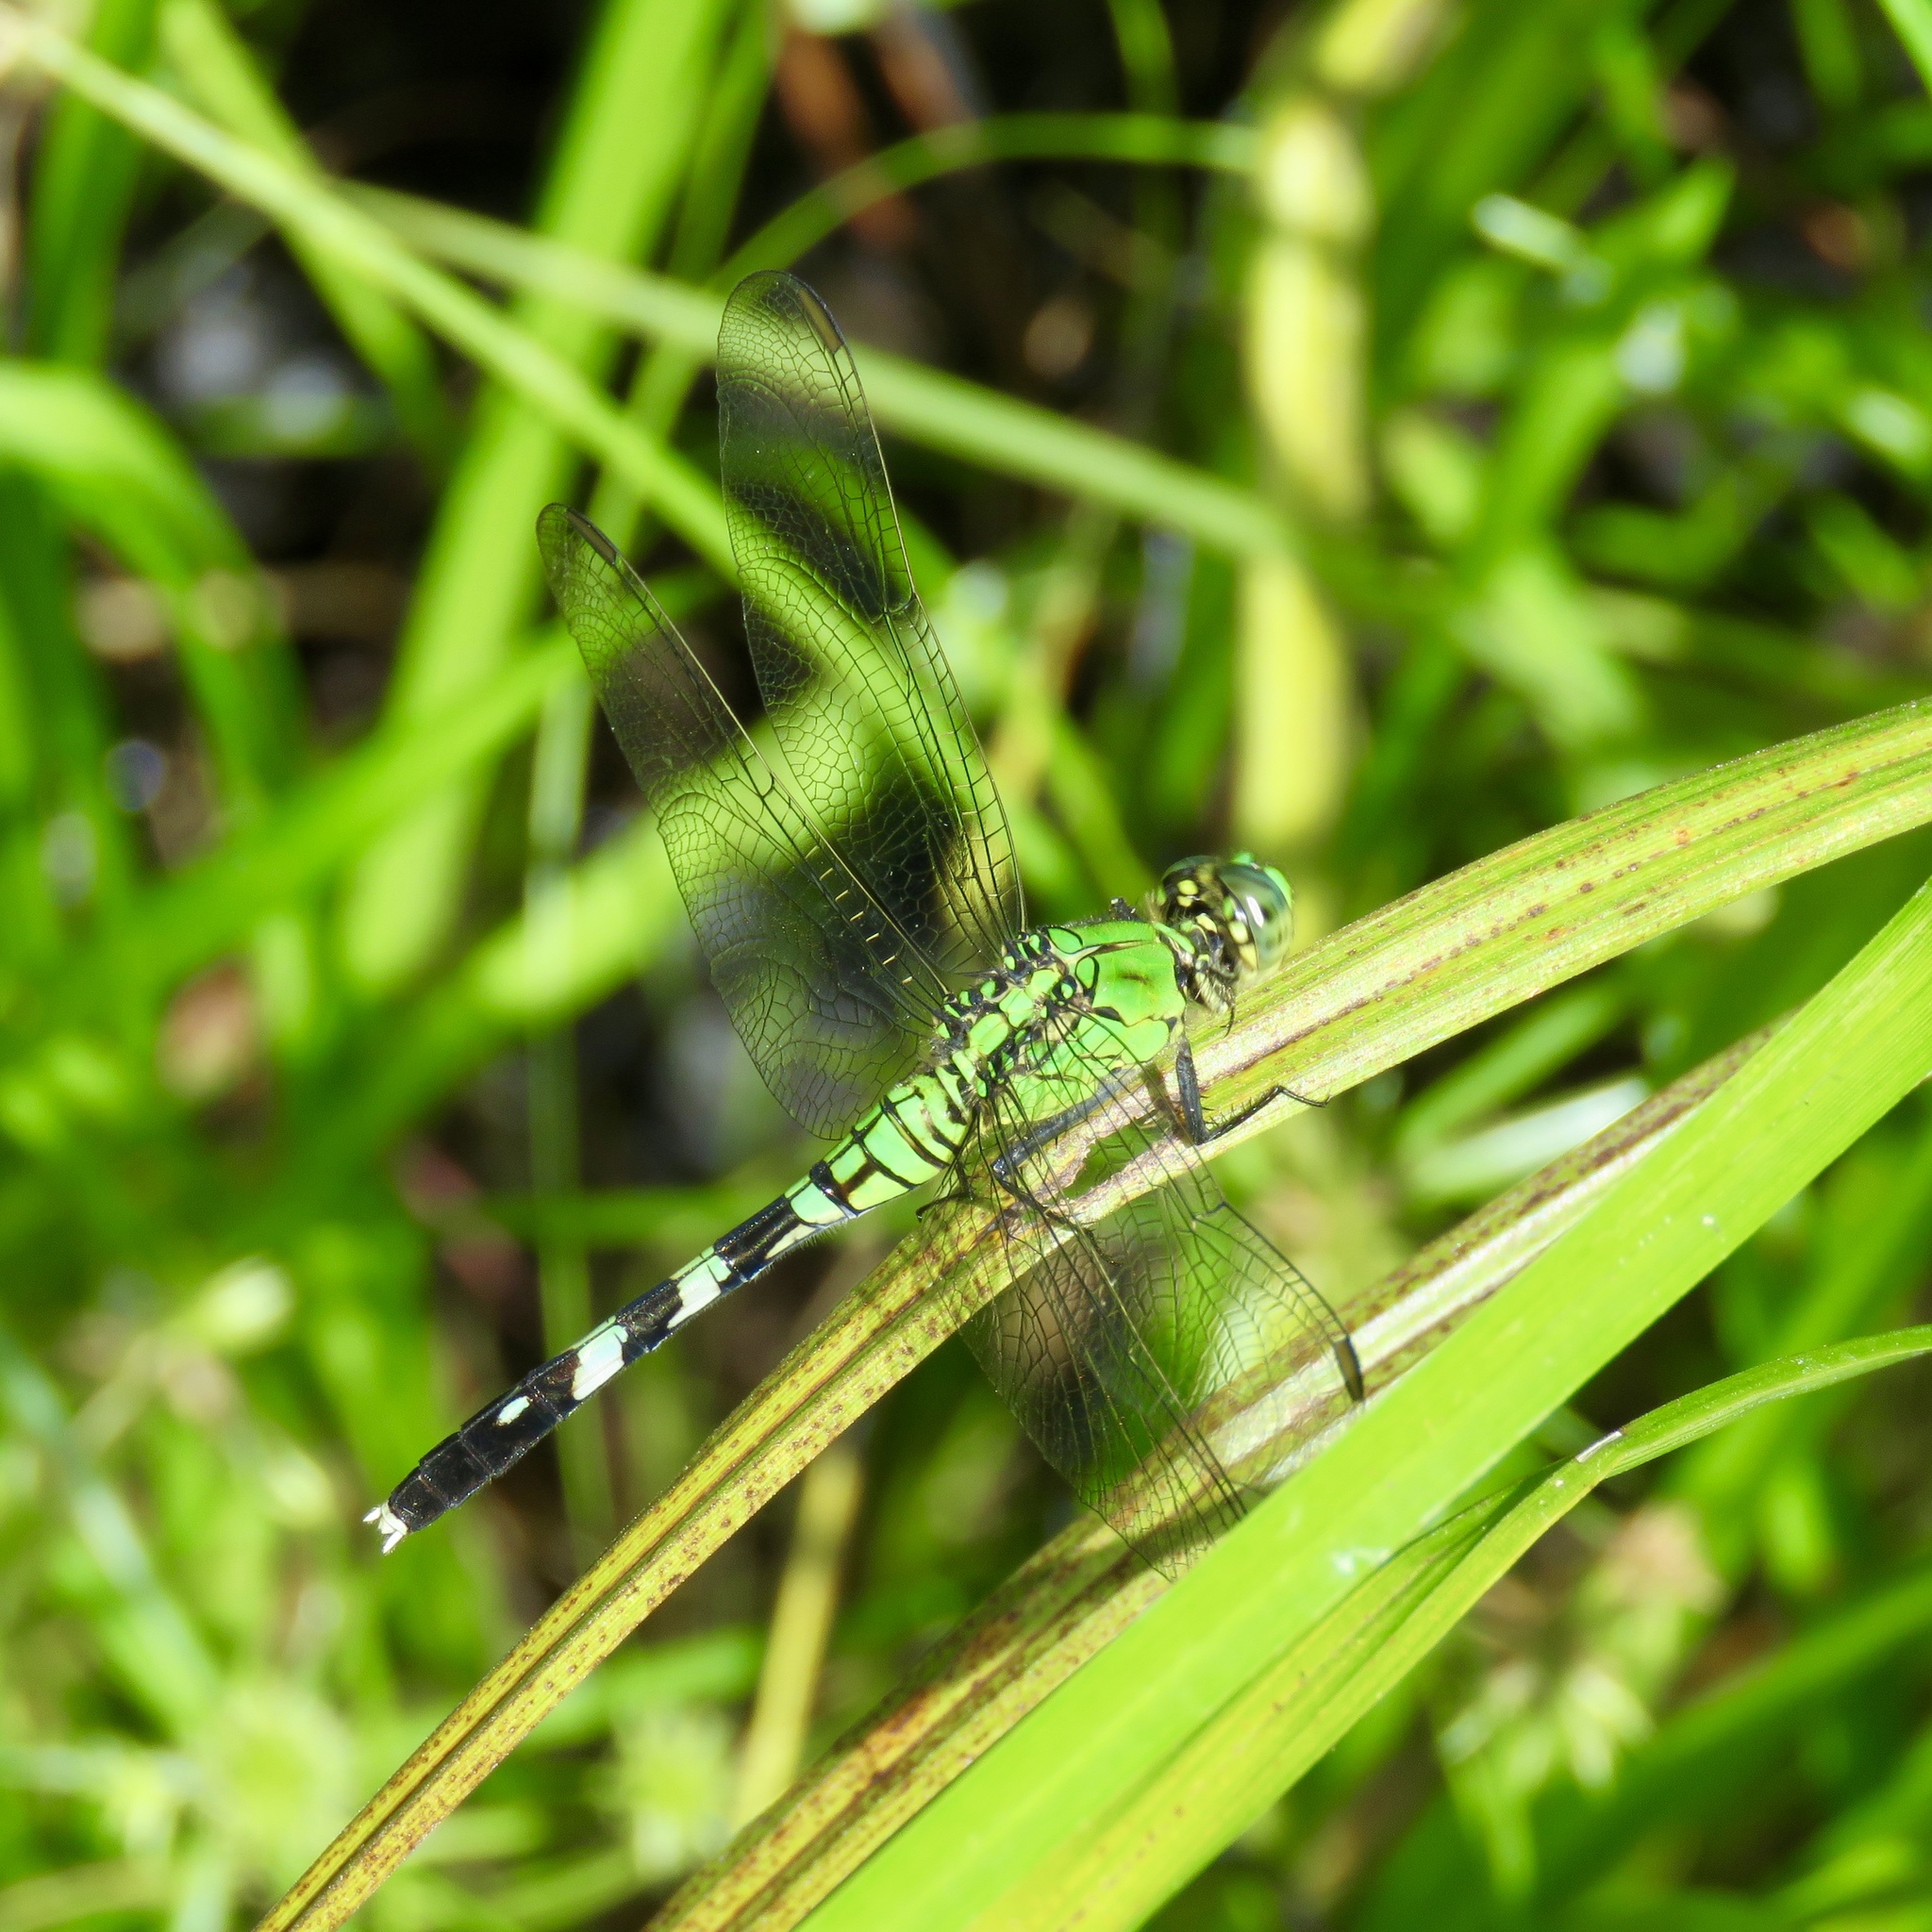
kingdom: Animalia
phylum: Arthropoda
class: Insecta
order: Odonata
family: Libellulidae
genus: Erythemis
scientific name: Erythemis simplicicollis
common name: Eastern pondhawk
